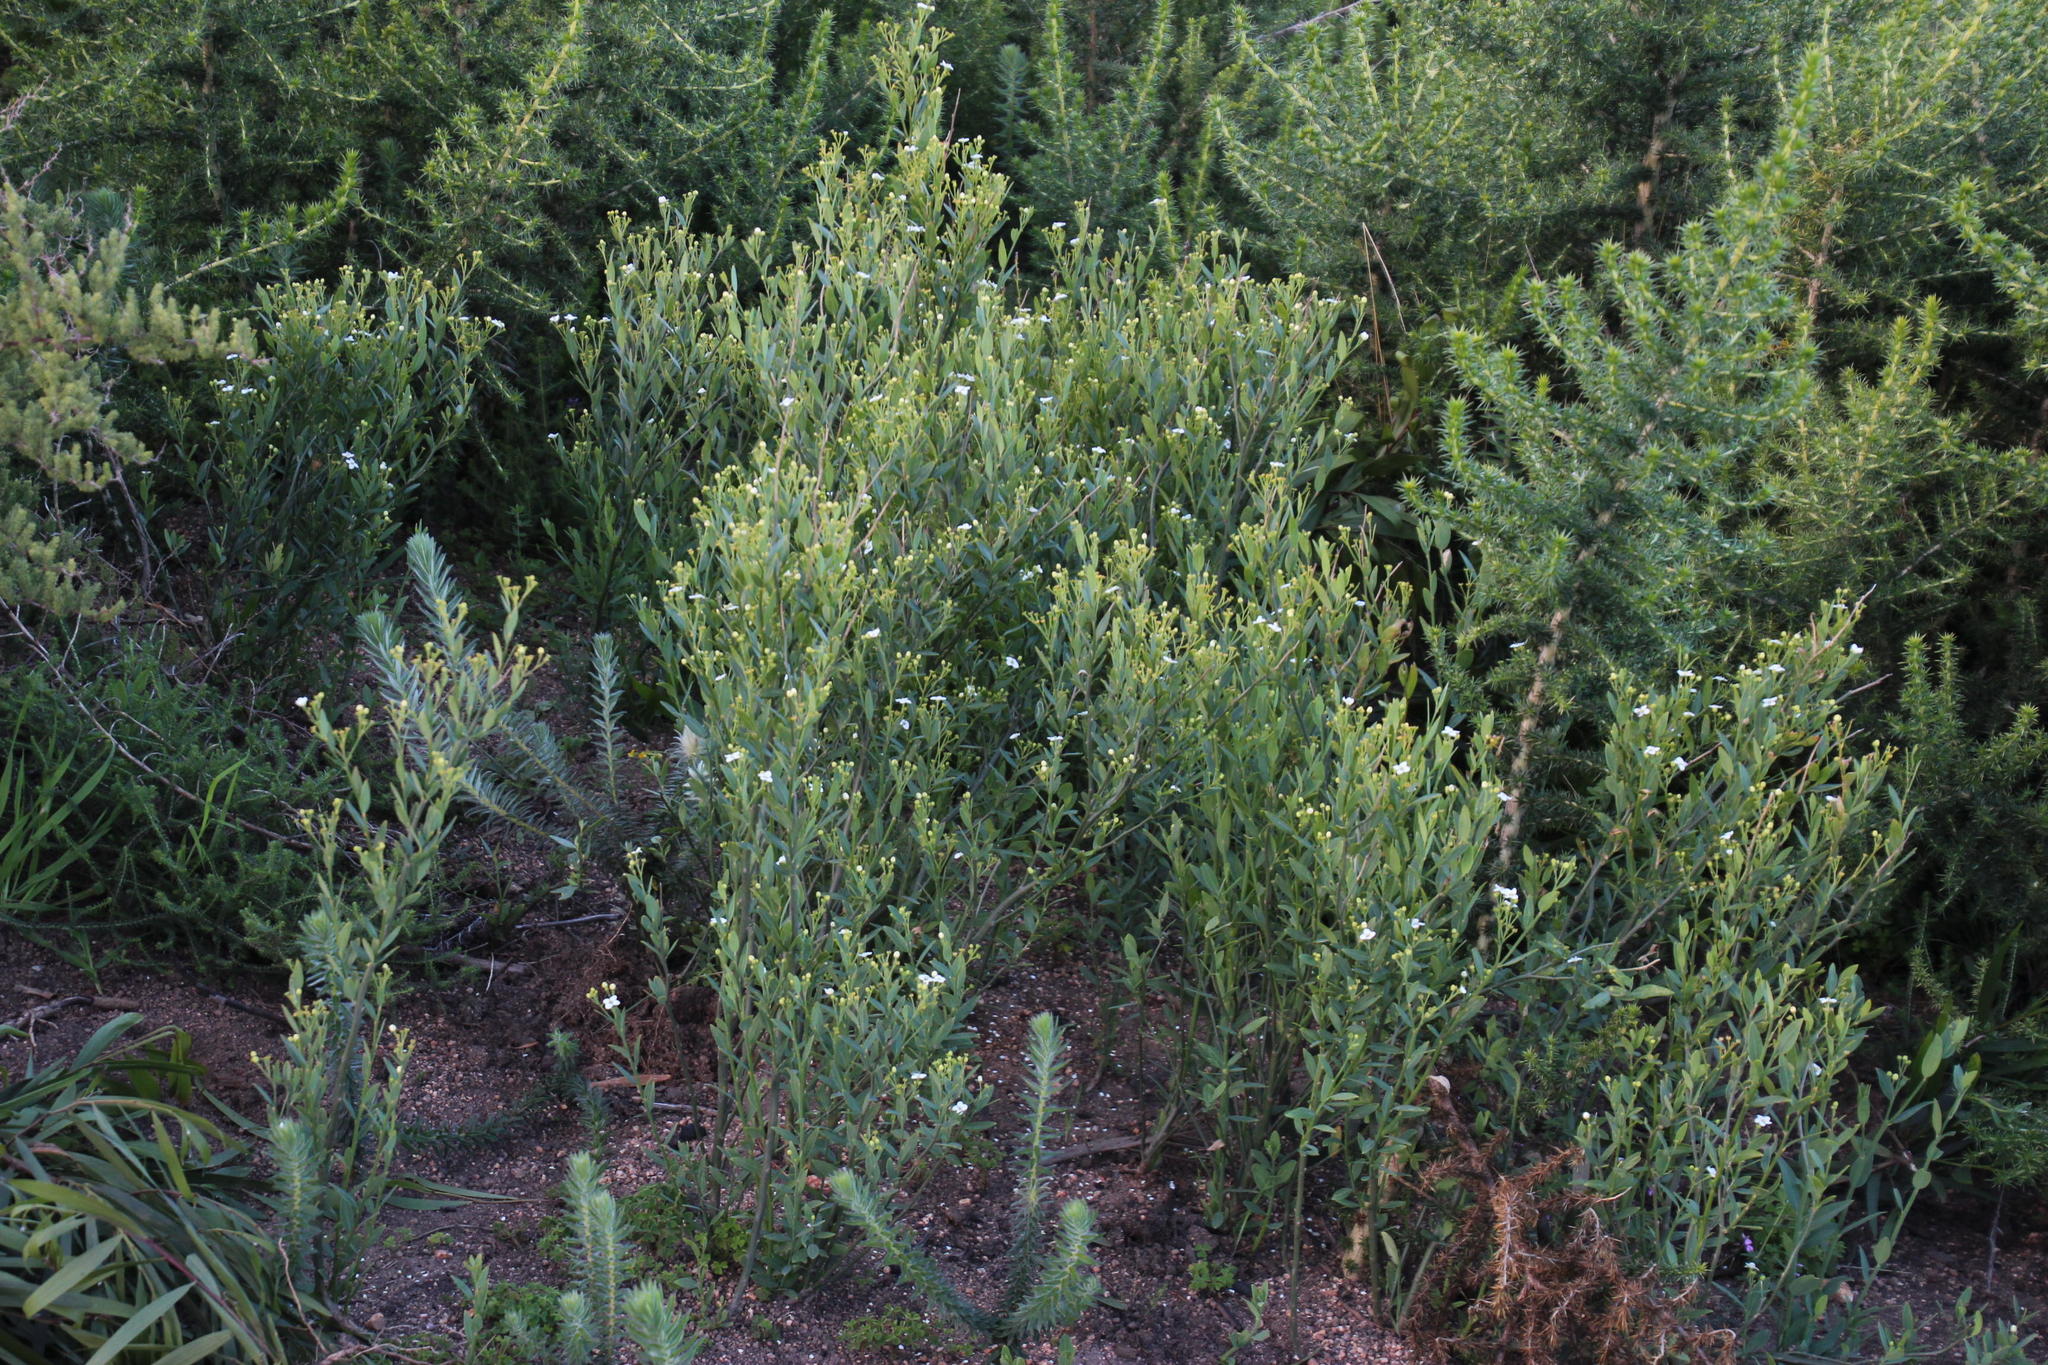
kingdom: Plantae
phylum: Tracheophyta
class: Magnoliopsida
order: Solanales
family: Montiniaceae
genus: Montinia
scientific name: Montinia caryophyllacea
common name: Wild clove-bush
